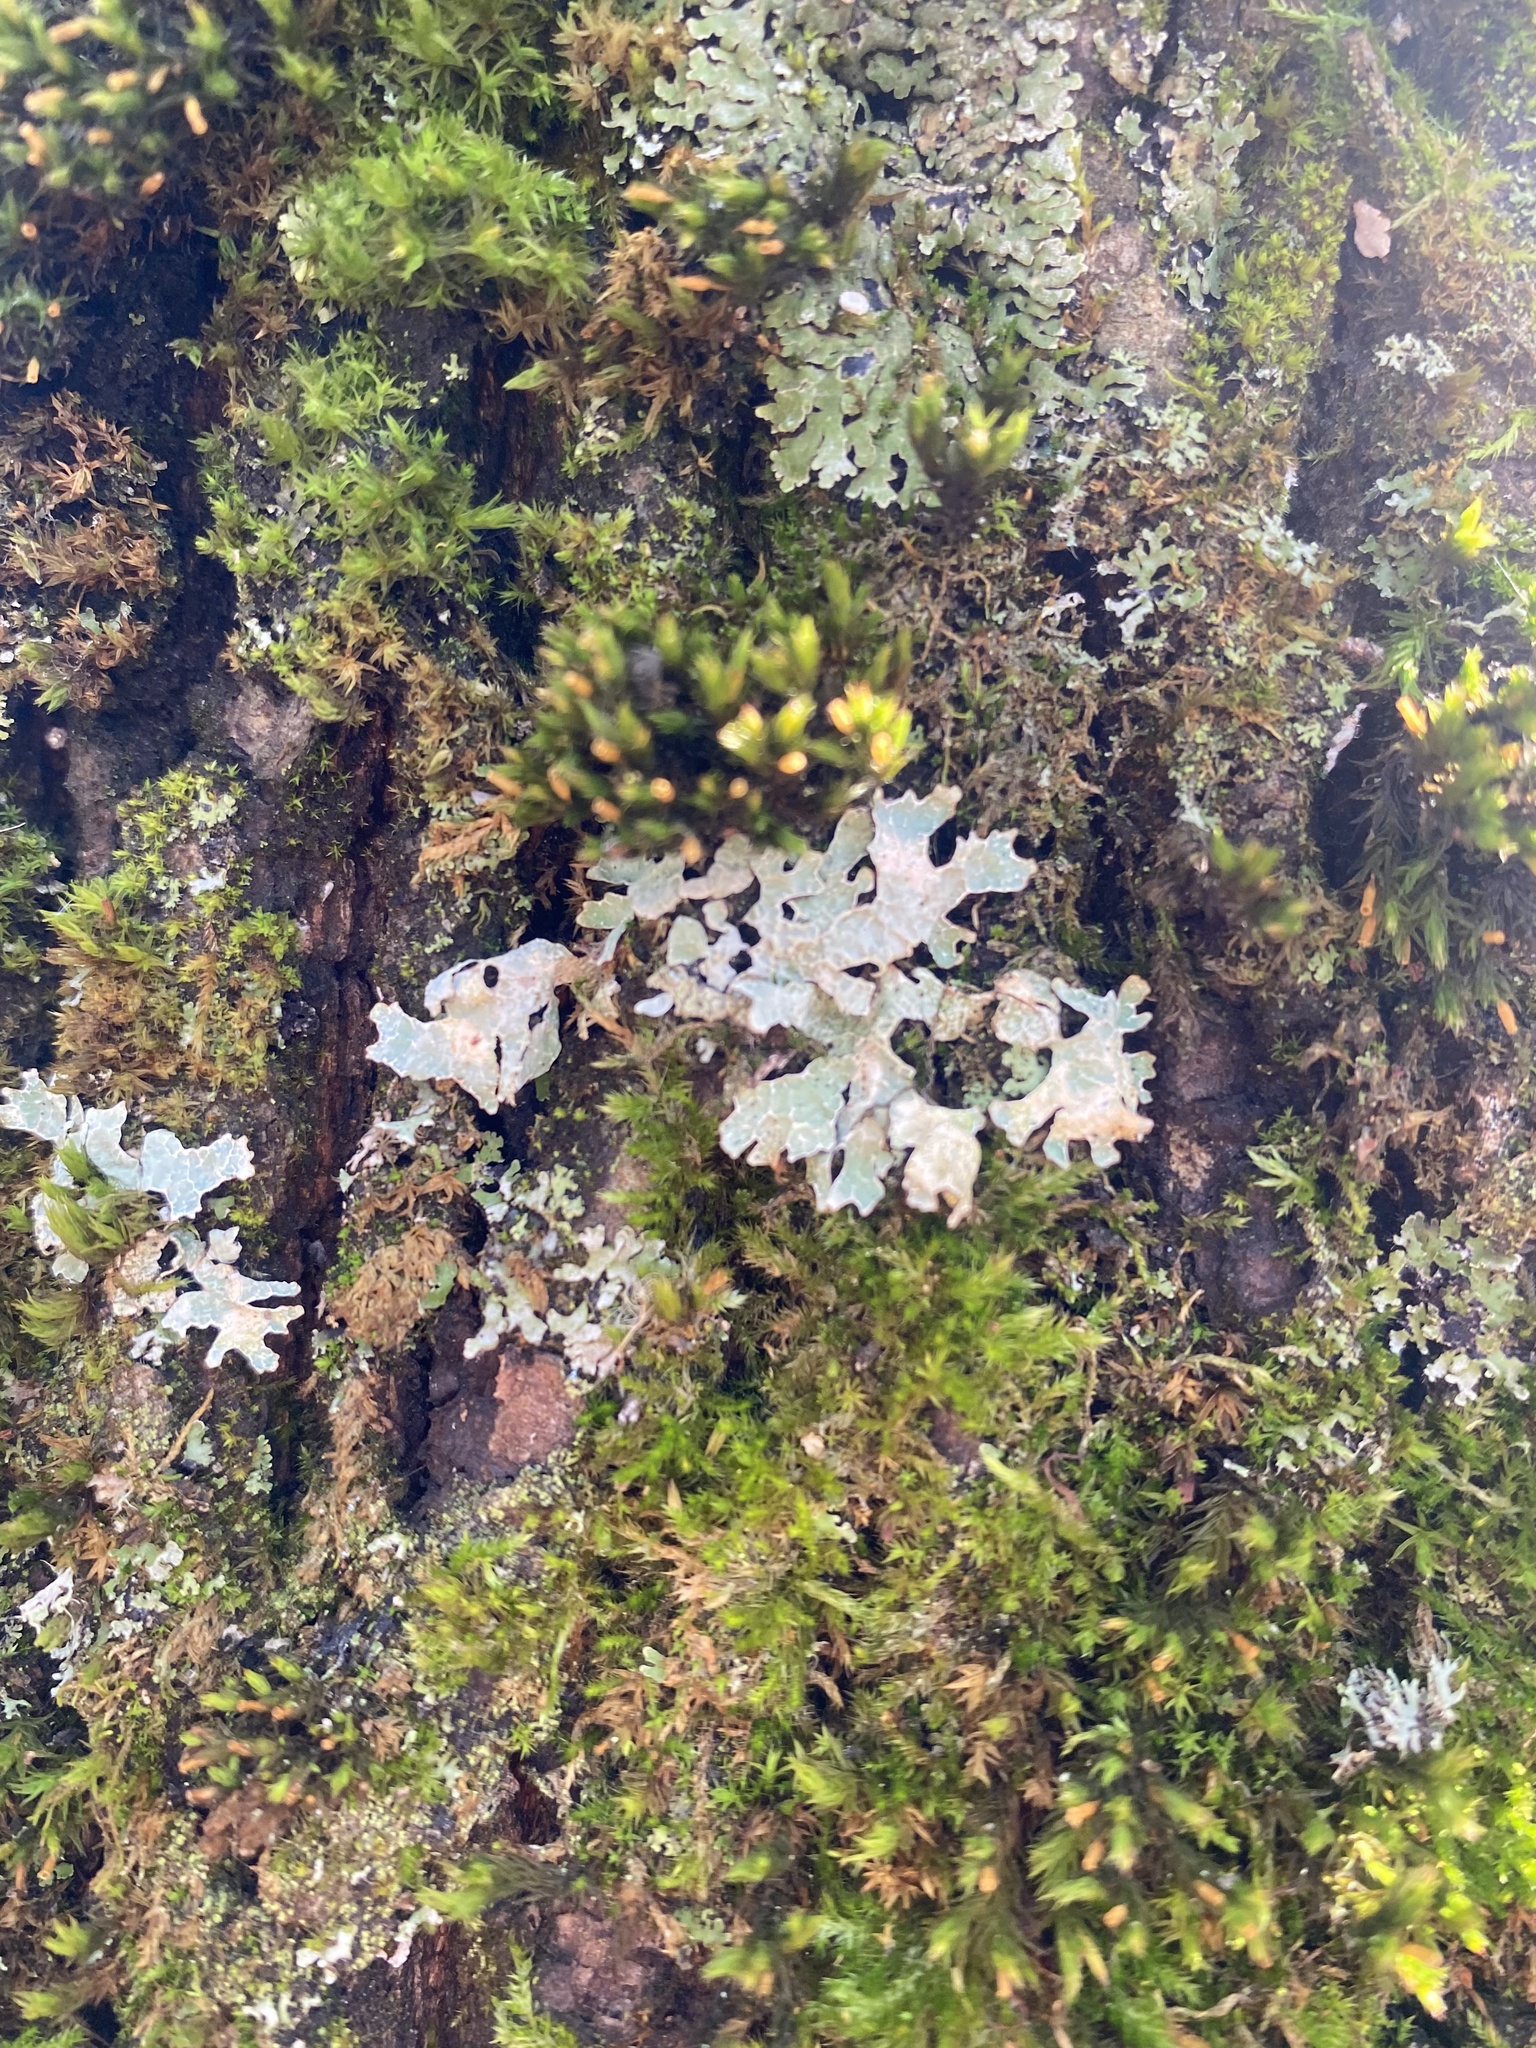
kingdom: Fungi
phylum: Ascomycota
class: Lecanoromycetes
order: Lecanorales
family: Parmeliaceae
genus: Parmelia
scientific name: Parmelia sulcata
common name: Netted shield lichen
